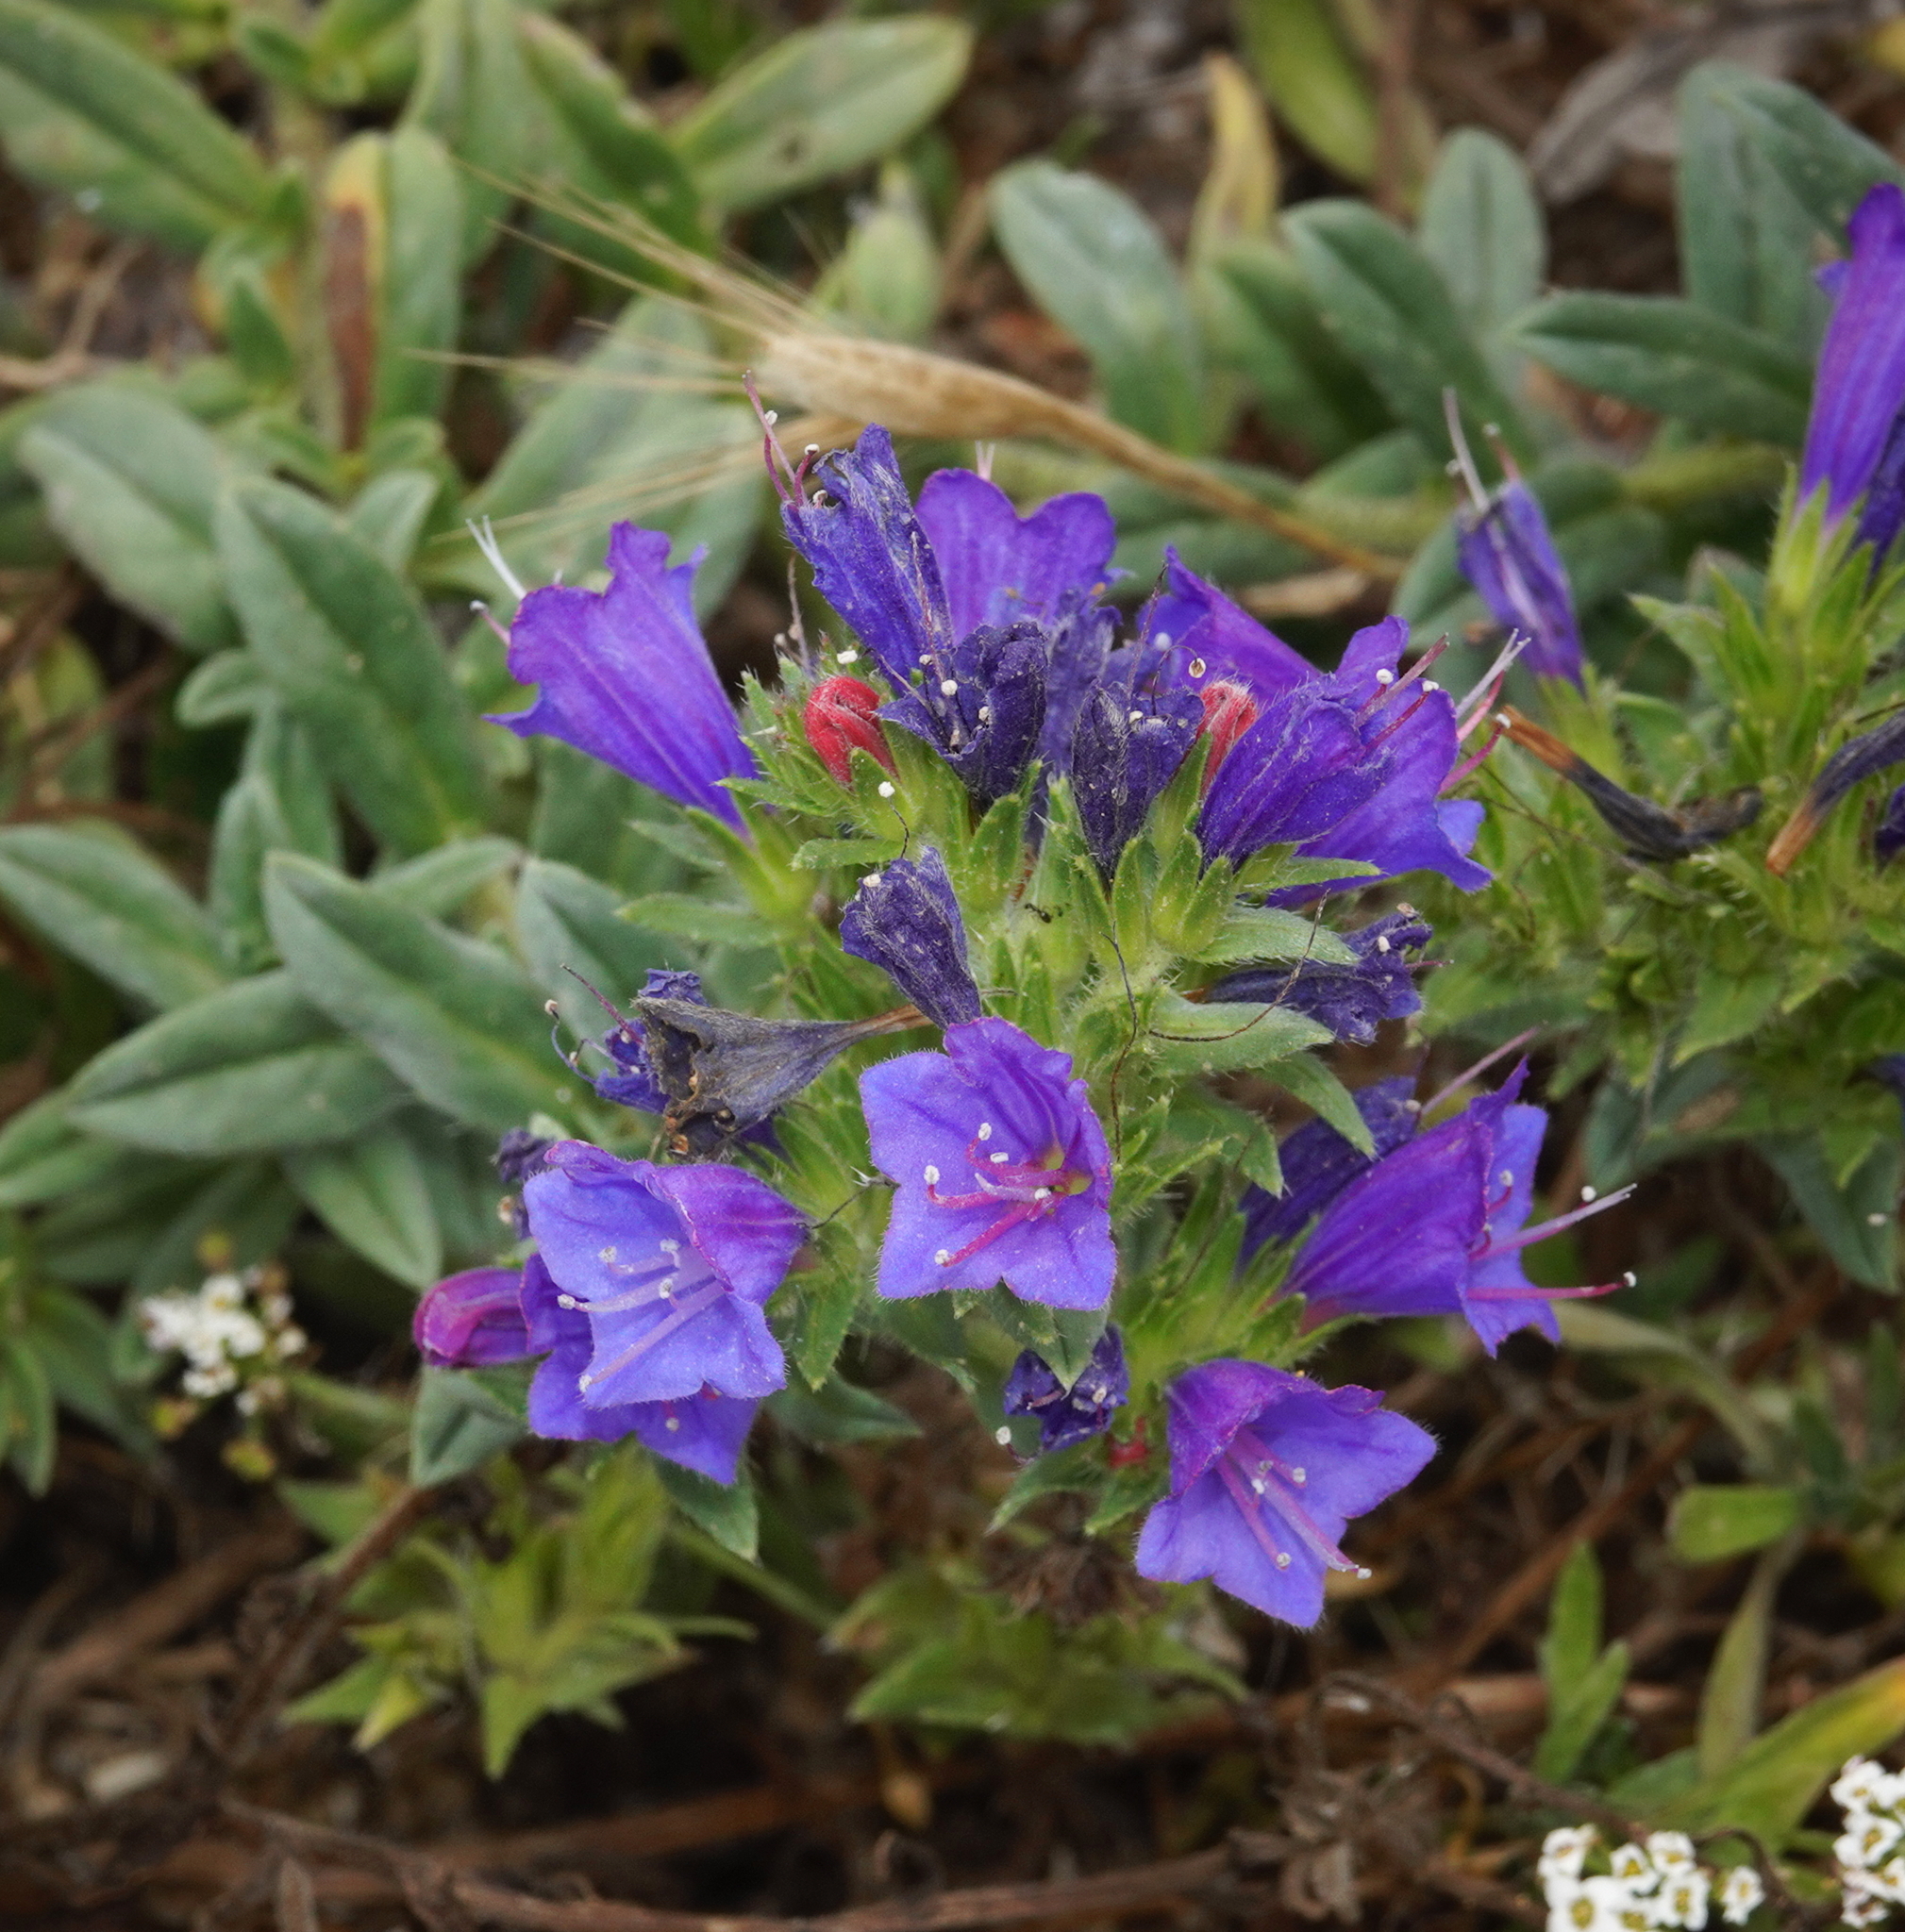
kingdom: Plantae
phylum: Tracheophyta
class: Magnoliopsida
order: Boraginales
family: Boraginaceae
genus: Echium
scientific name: Echium rosulatum
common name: Lax viper's-bugloss
